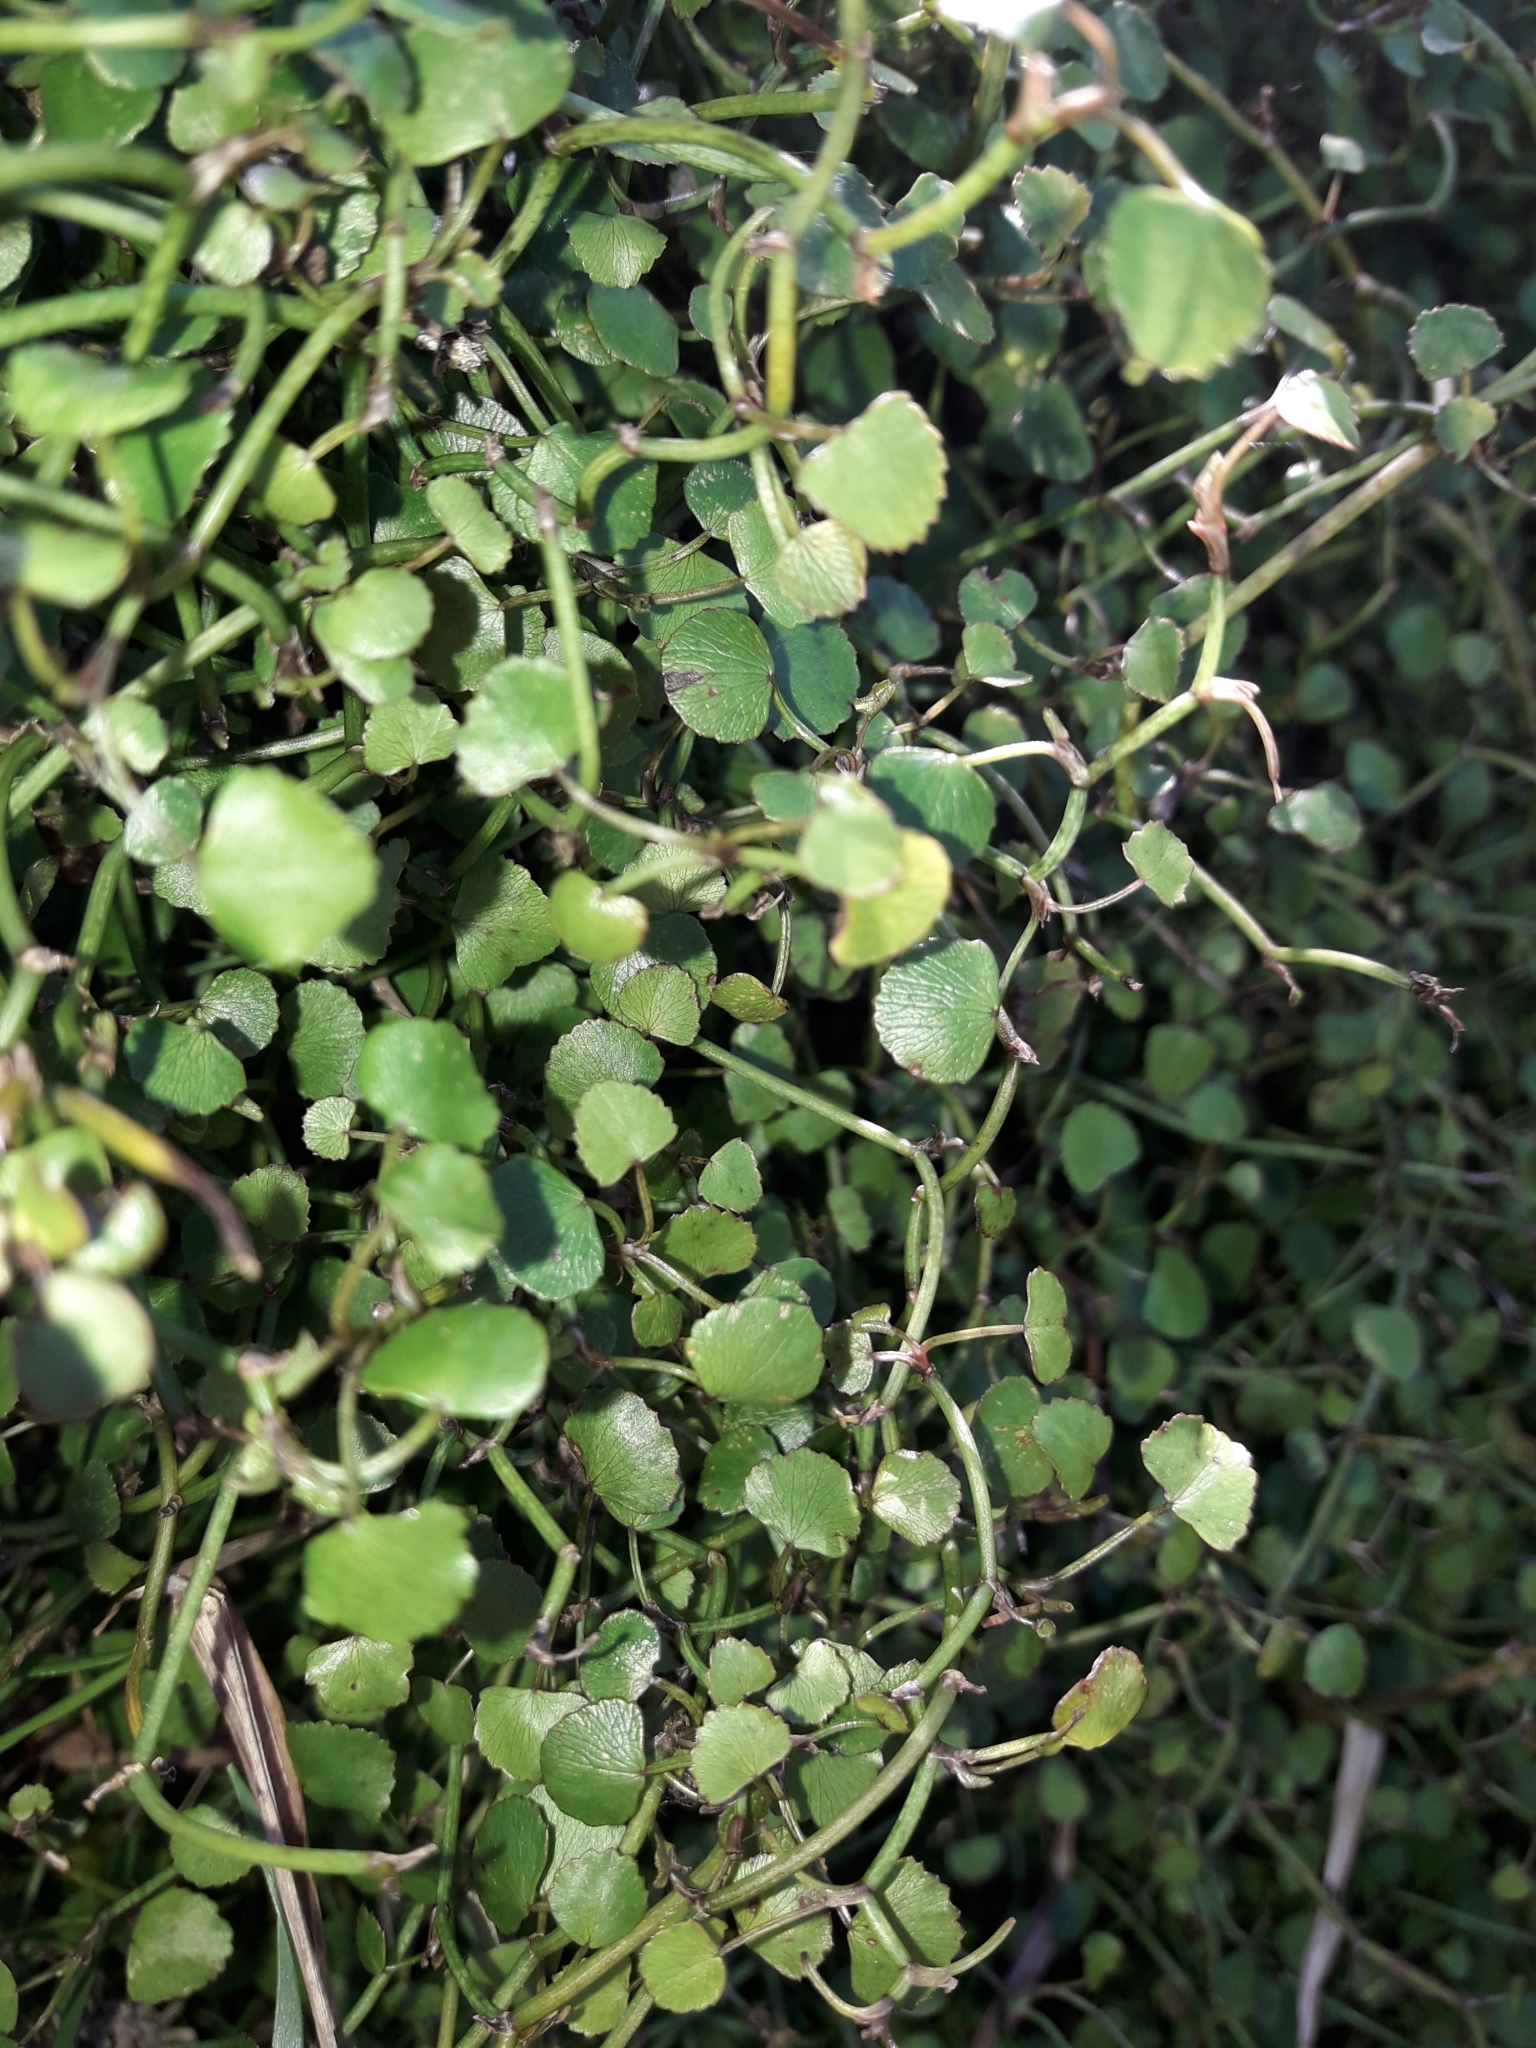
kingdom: Plantae
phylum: Tracheophyta
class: Magnoliopsida
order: Apiales
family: Apiaceae
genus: Scandia
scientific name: Scandia geniculata
